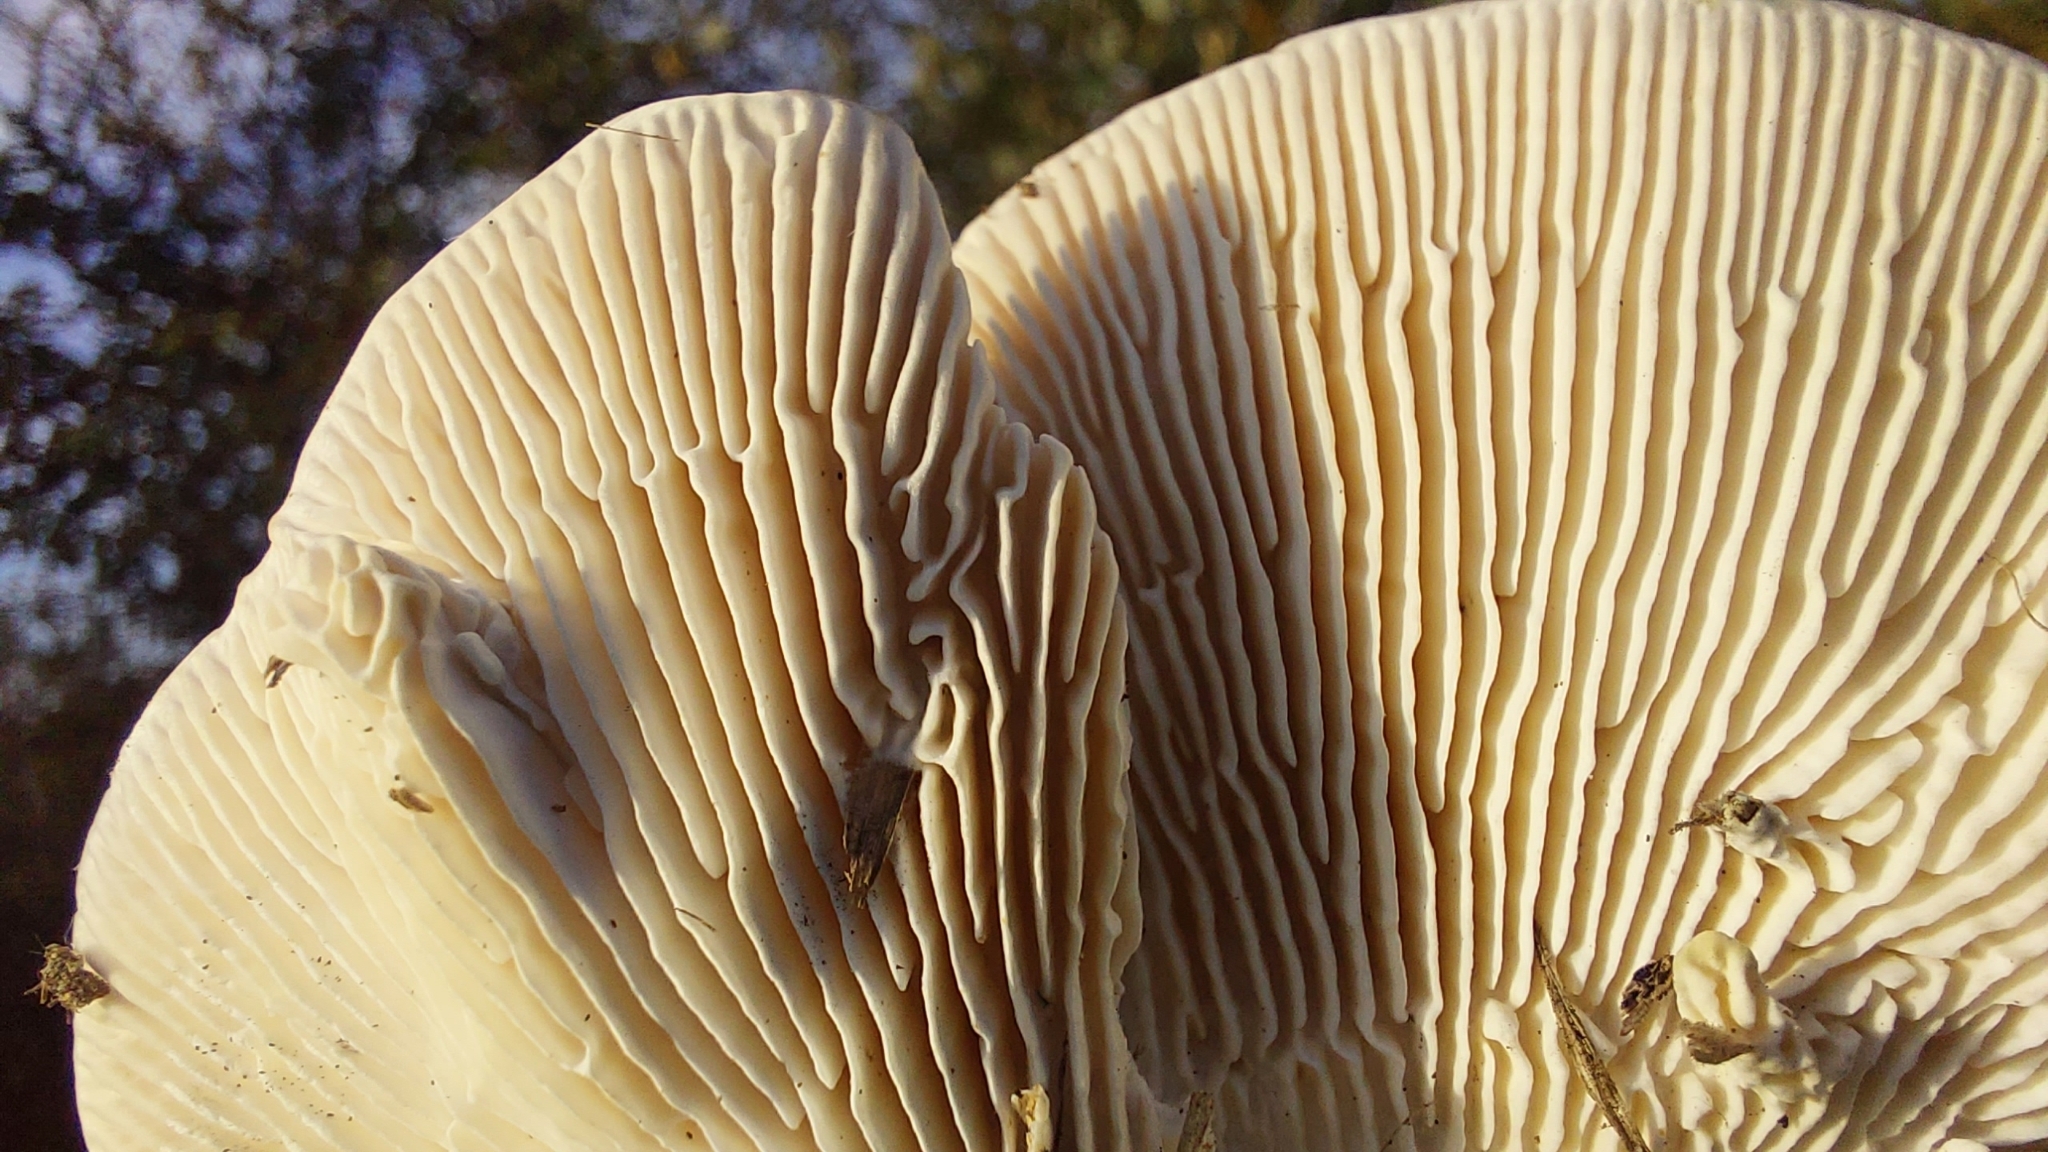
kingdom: Fungi
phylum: Basidiomycota
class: Agaricomycetes
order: Polyporales
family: Polyporaceae
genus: Lenzites
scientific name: Lenzites betulinus
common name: Birch mazegill
